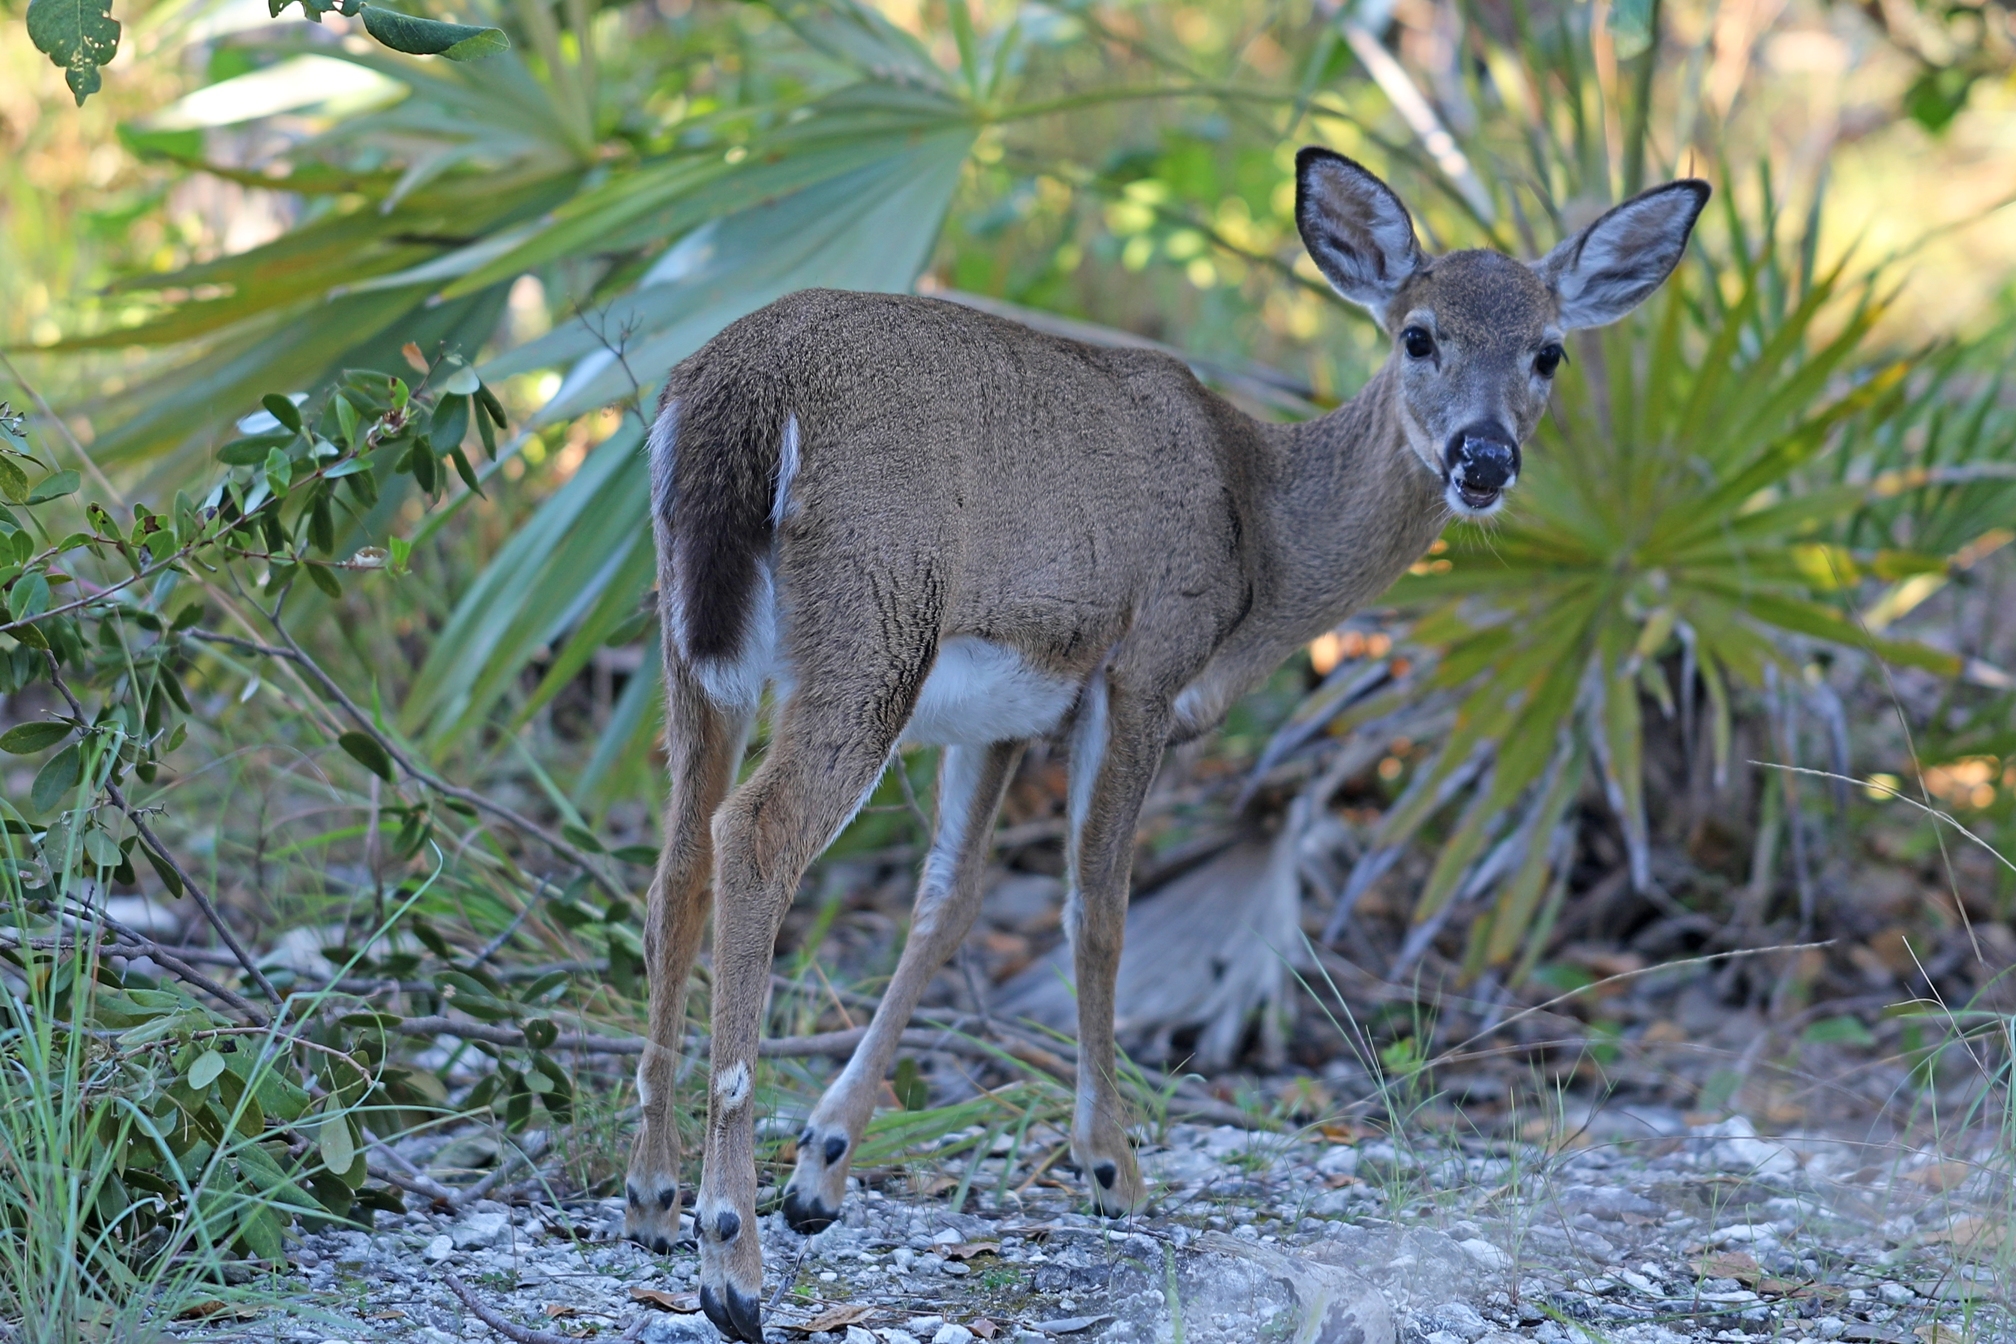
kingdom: Animalia
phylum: Chordata
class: Mammalia
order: Artiodactyla
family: Cervidae
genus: Odocoileus
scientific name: Odocoileus virginianus
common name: White-tailed deer
